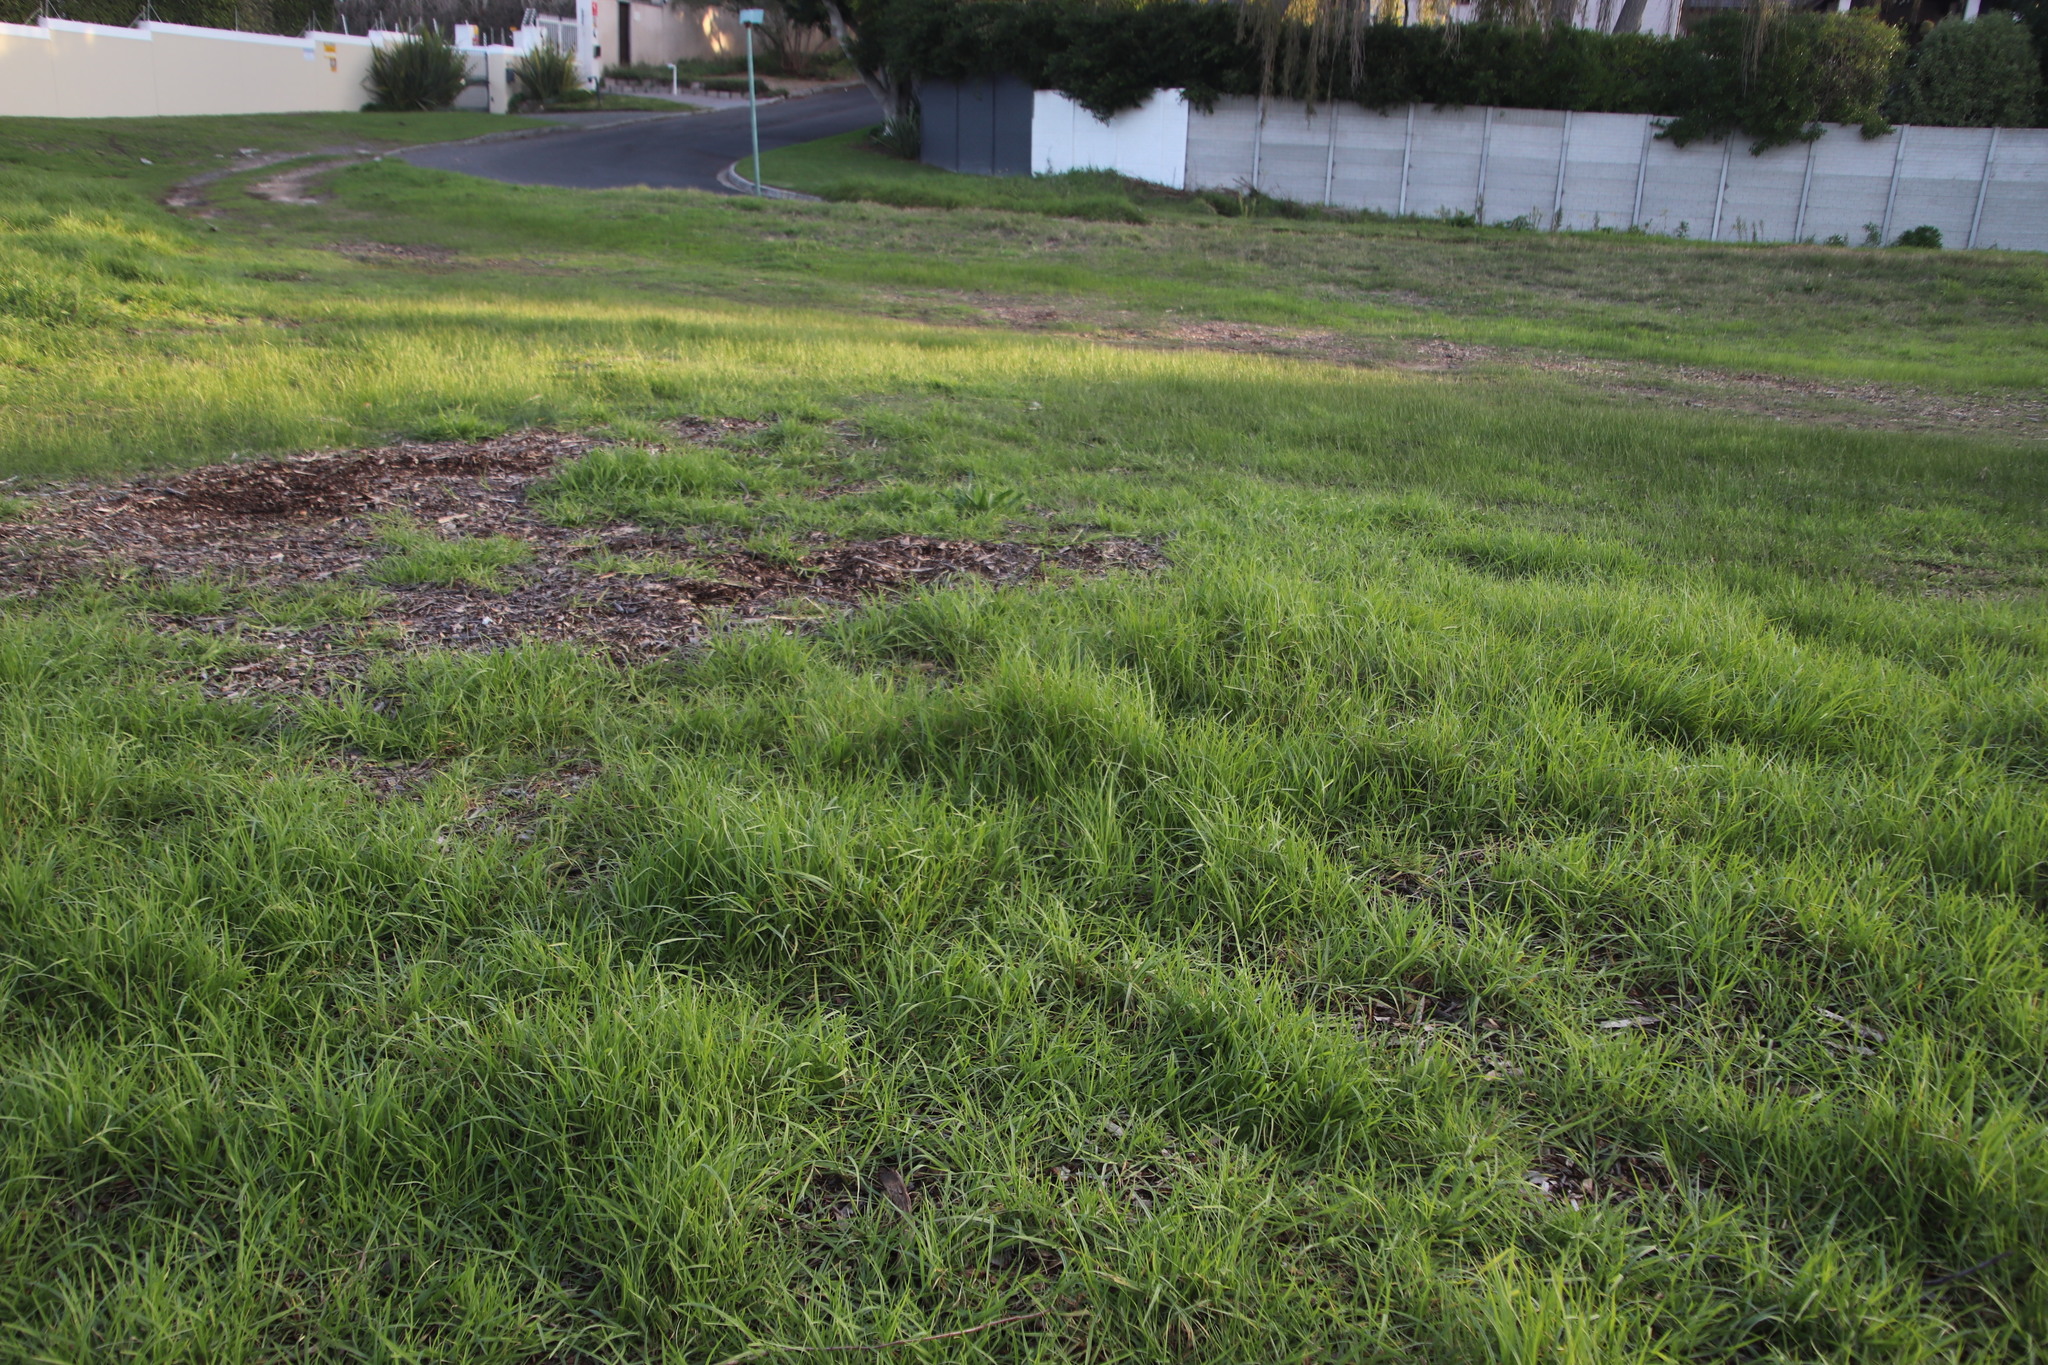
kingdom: Plantae
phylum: Tracheophyta
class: Liliopsida
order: Poales
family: Poaceae
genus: Cenchrus
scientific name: Cenchrus clandestinus
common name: Kikuyugrass
